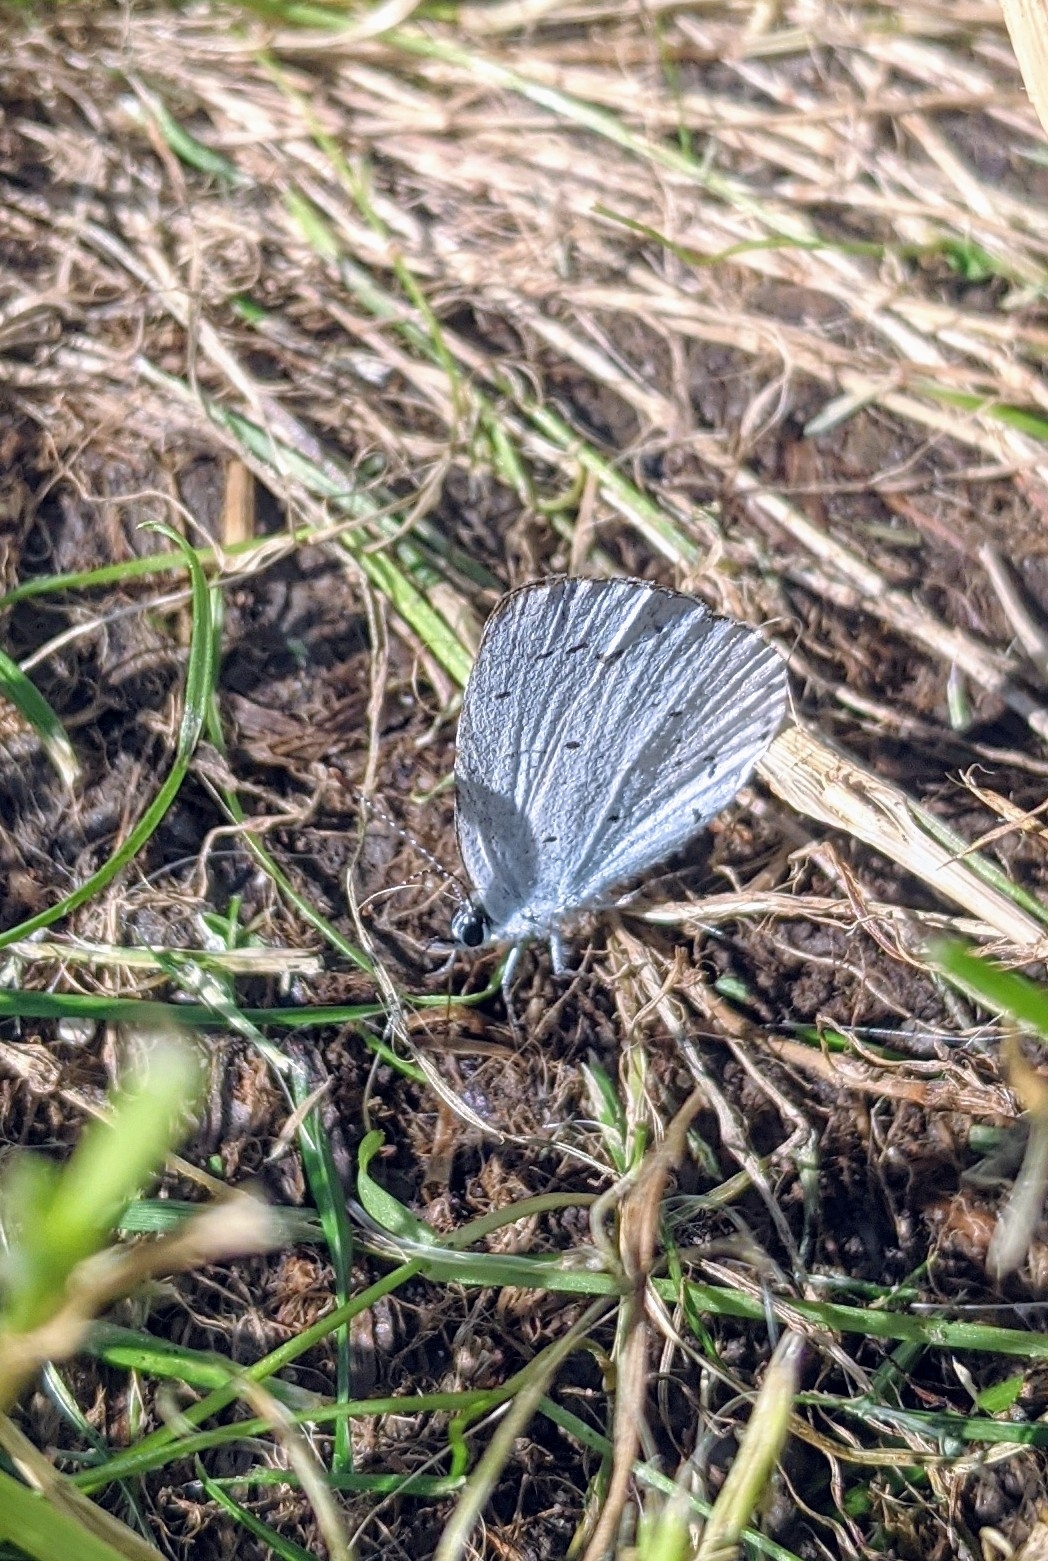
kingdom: Animalia
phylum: Arthropoda
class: Insecta
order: Lepidoptera
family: Lycaenidae
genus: Celastrina
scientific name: Celastrina argiolus
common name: Holly blue
